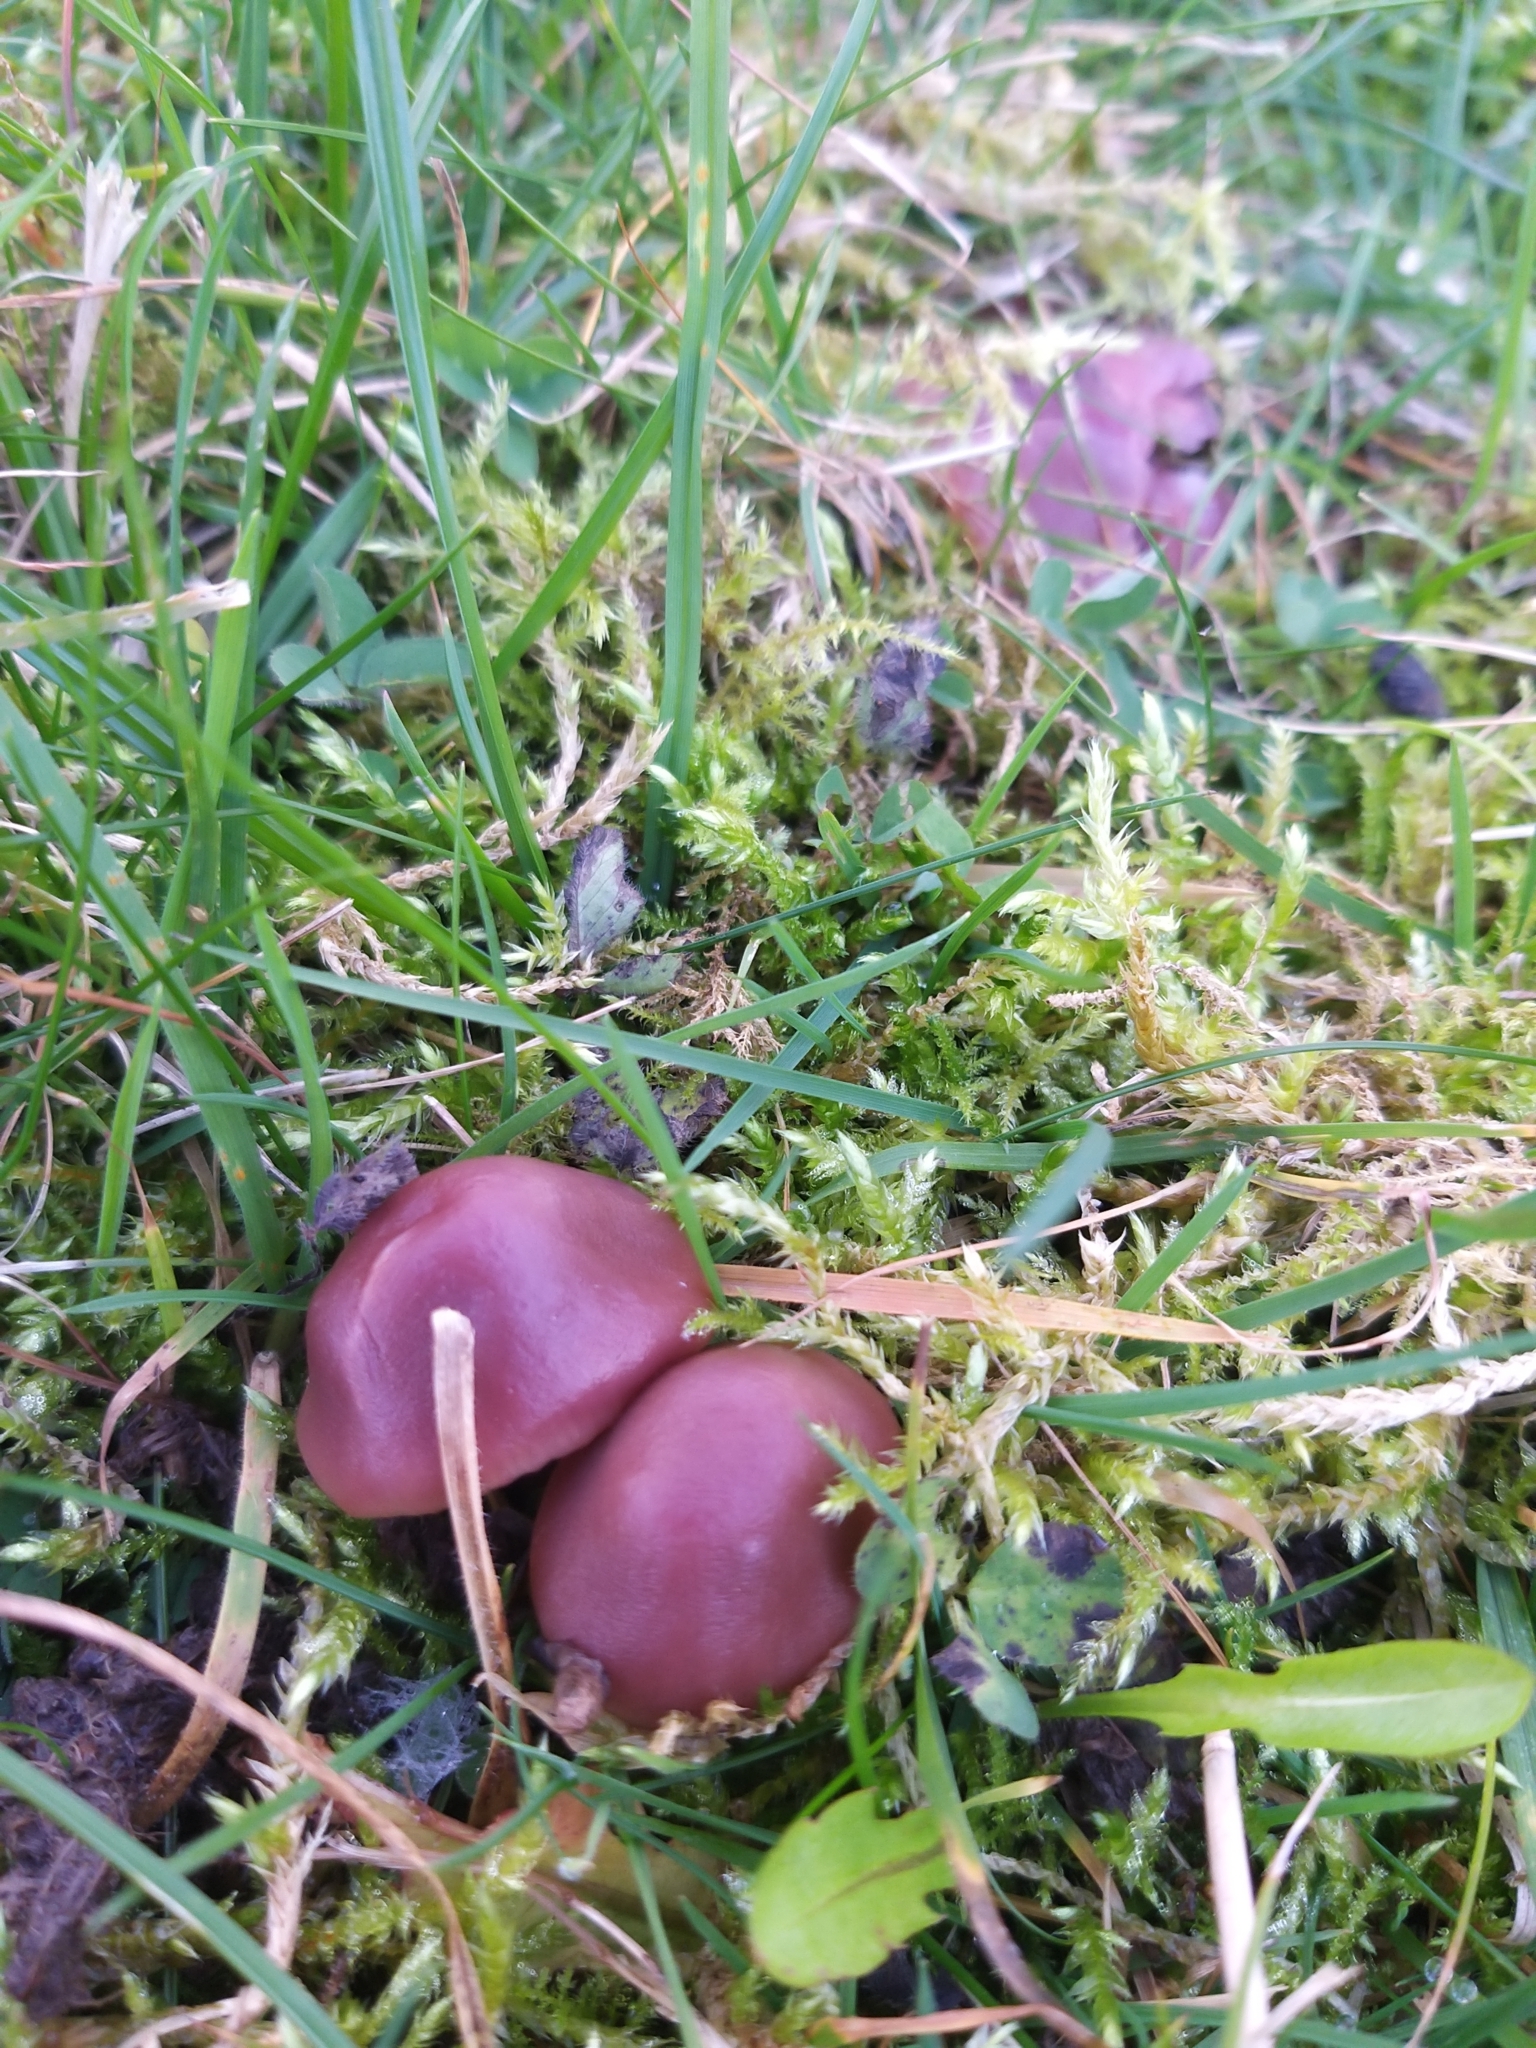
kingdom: Fungi
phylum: Basidiomycota
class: Agaricomycetes
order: Agaricales
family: Hygrophoraceae
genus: Gliophorus
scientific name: Gliophorus reginae
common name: Jubilee waxcap
